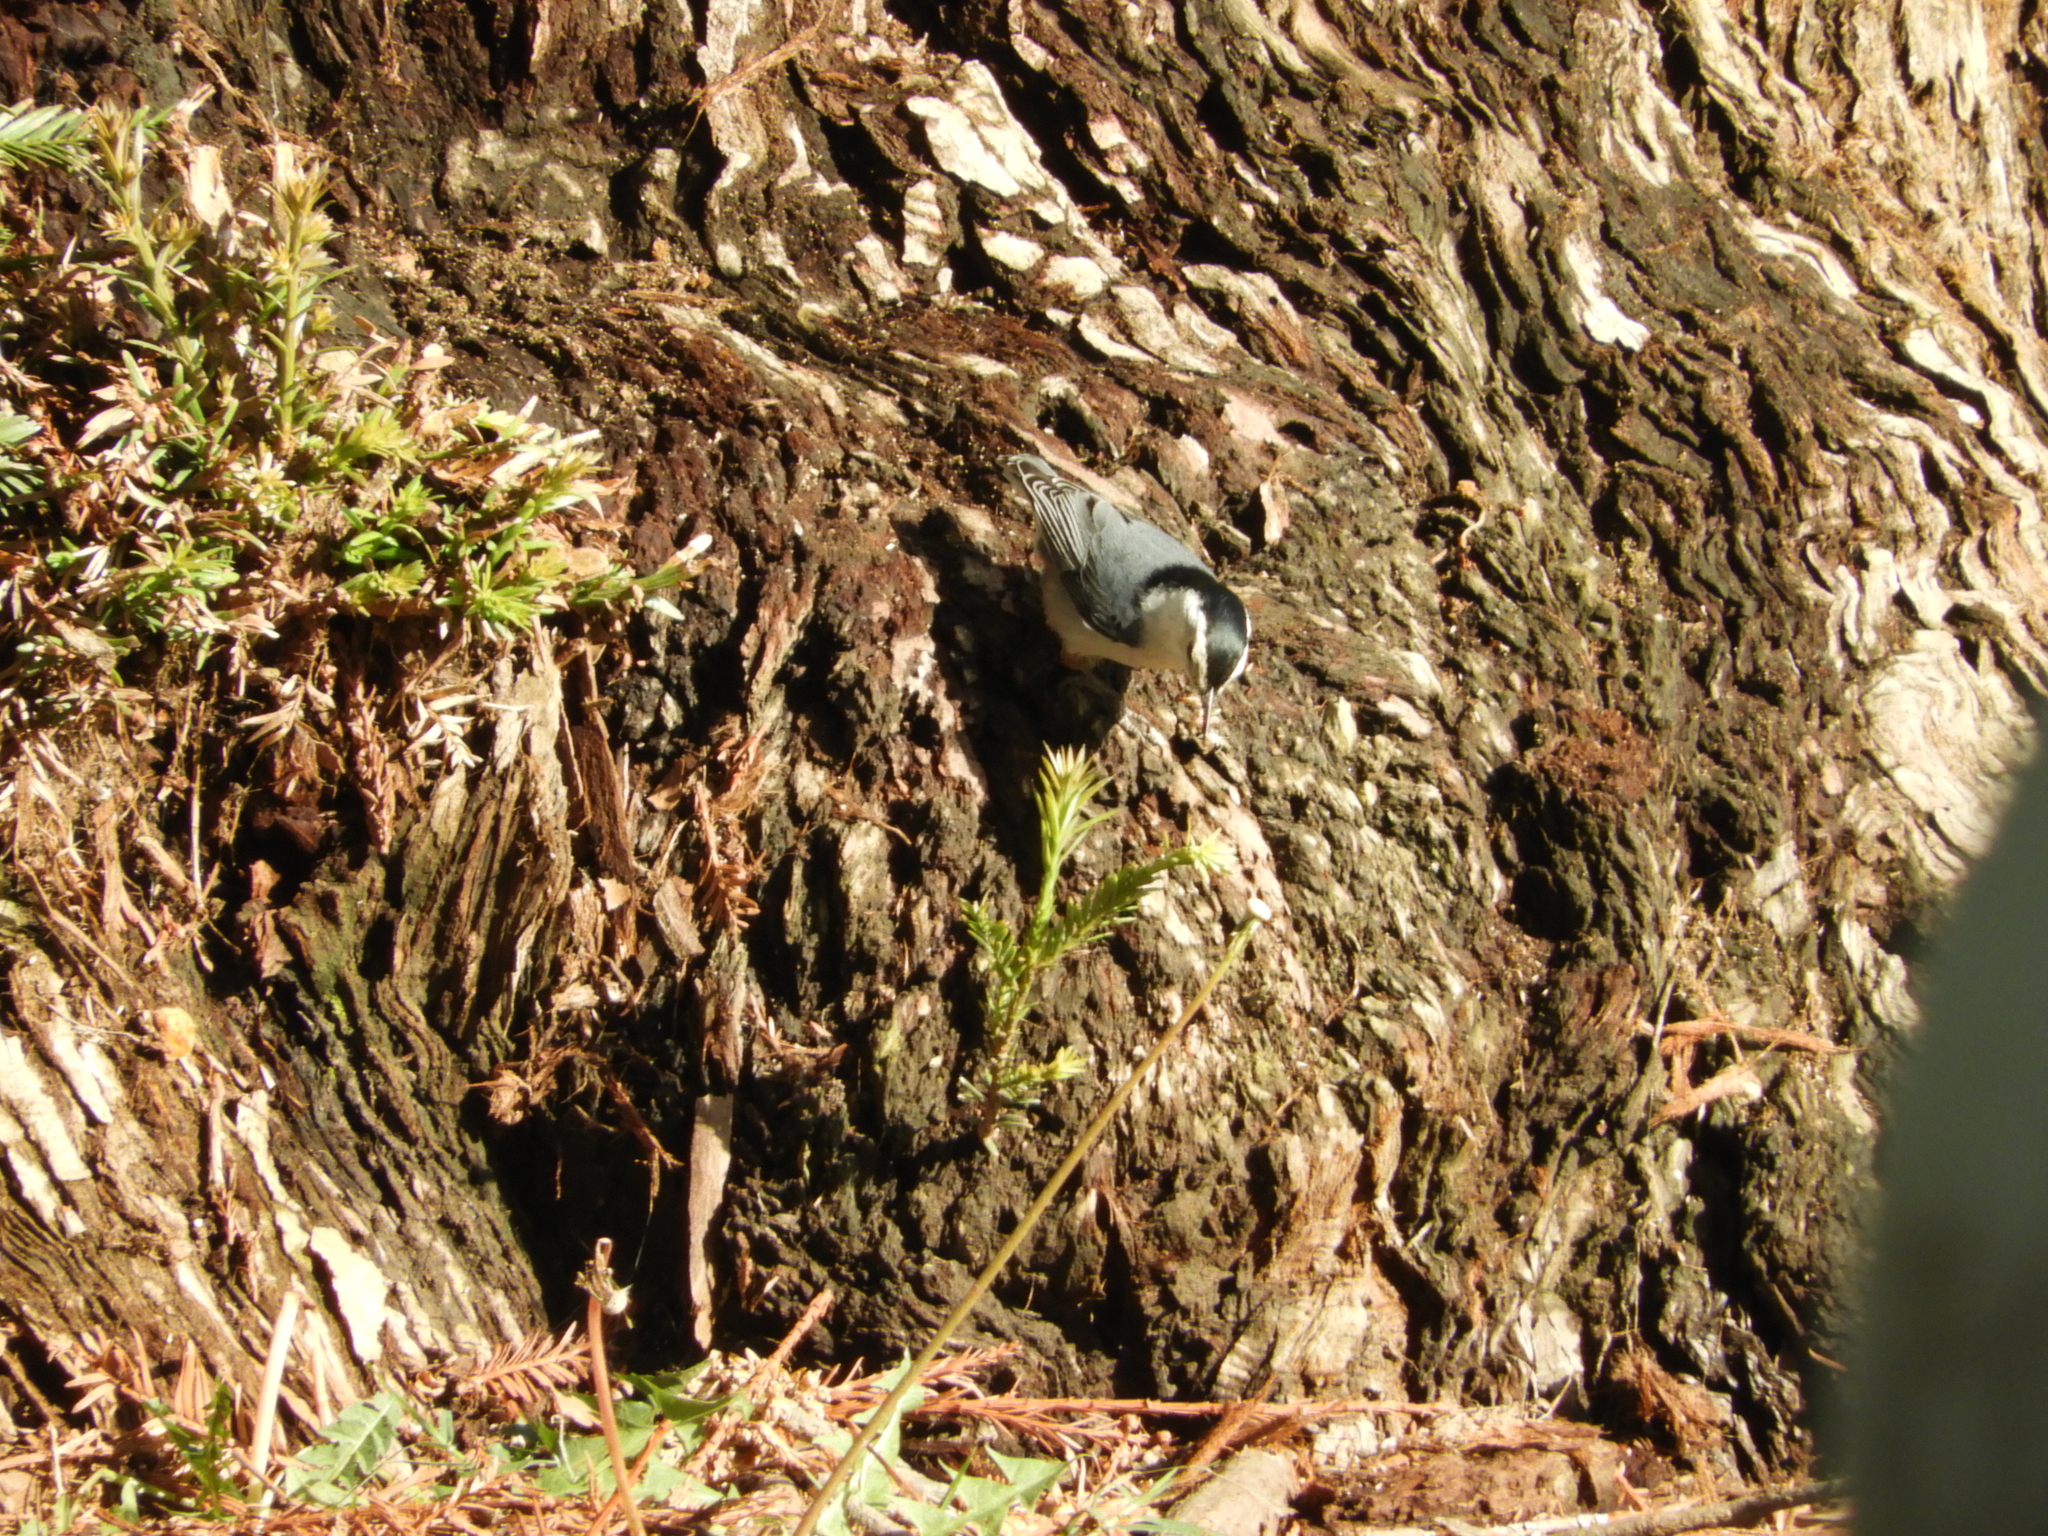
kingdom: Animalia
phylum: Chordata
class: Aves
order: Passeriformes
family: Sittidae
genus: Sitta
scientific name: Sitta carolinensis
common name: White-breasted nuthatch
